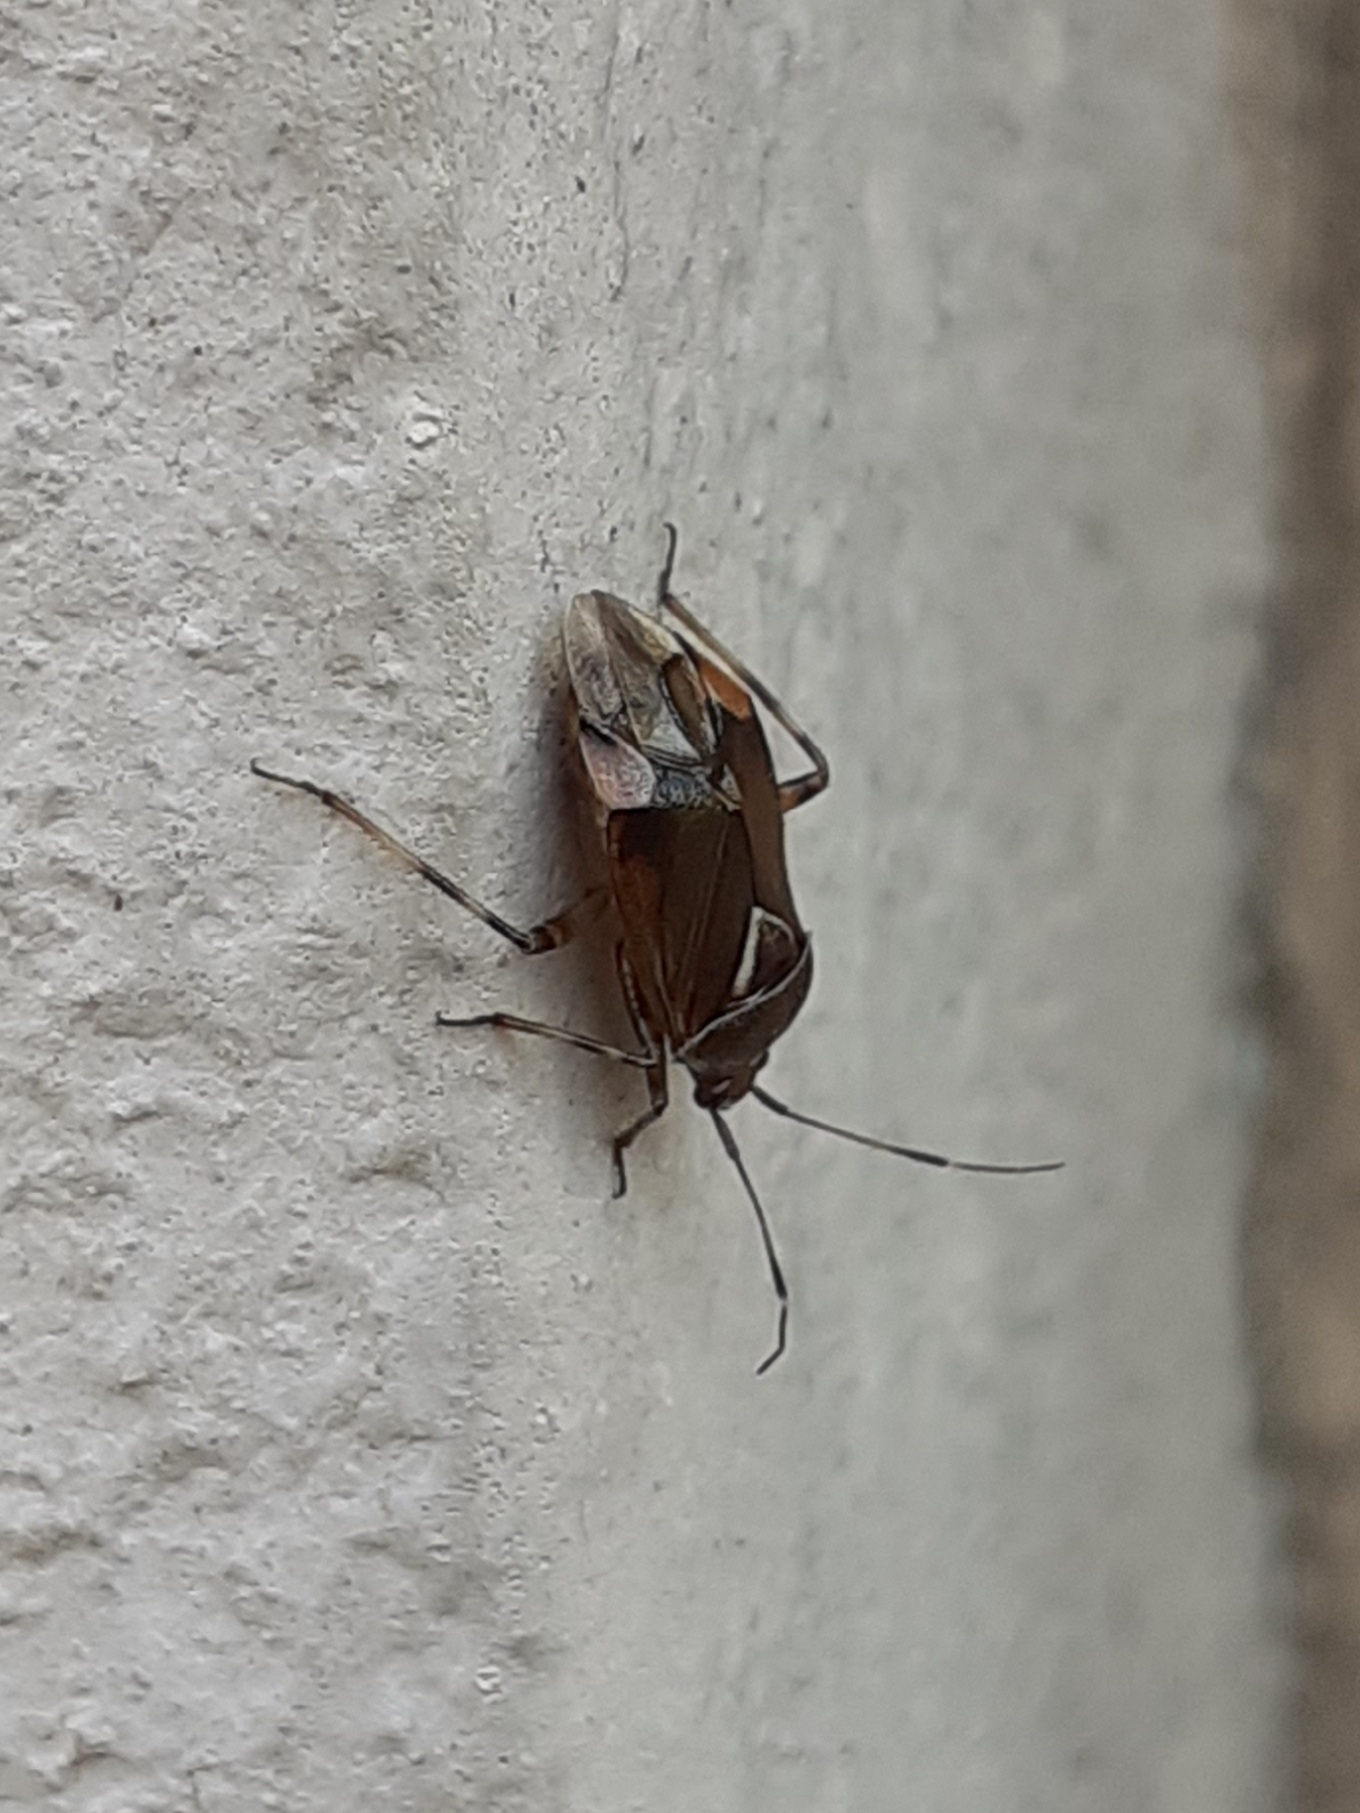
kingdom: Animalia
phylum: Arthropoda
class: Insecta
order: Hemiptera
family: Miridae
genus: Deraeocoris
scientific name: Deraeocoris flavilinea
